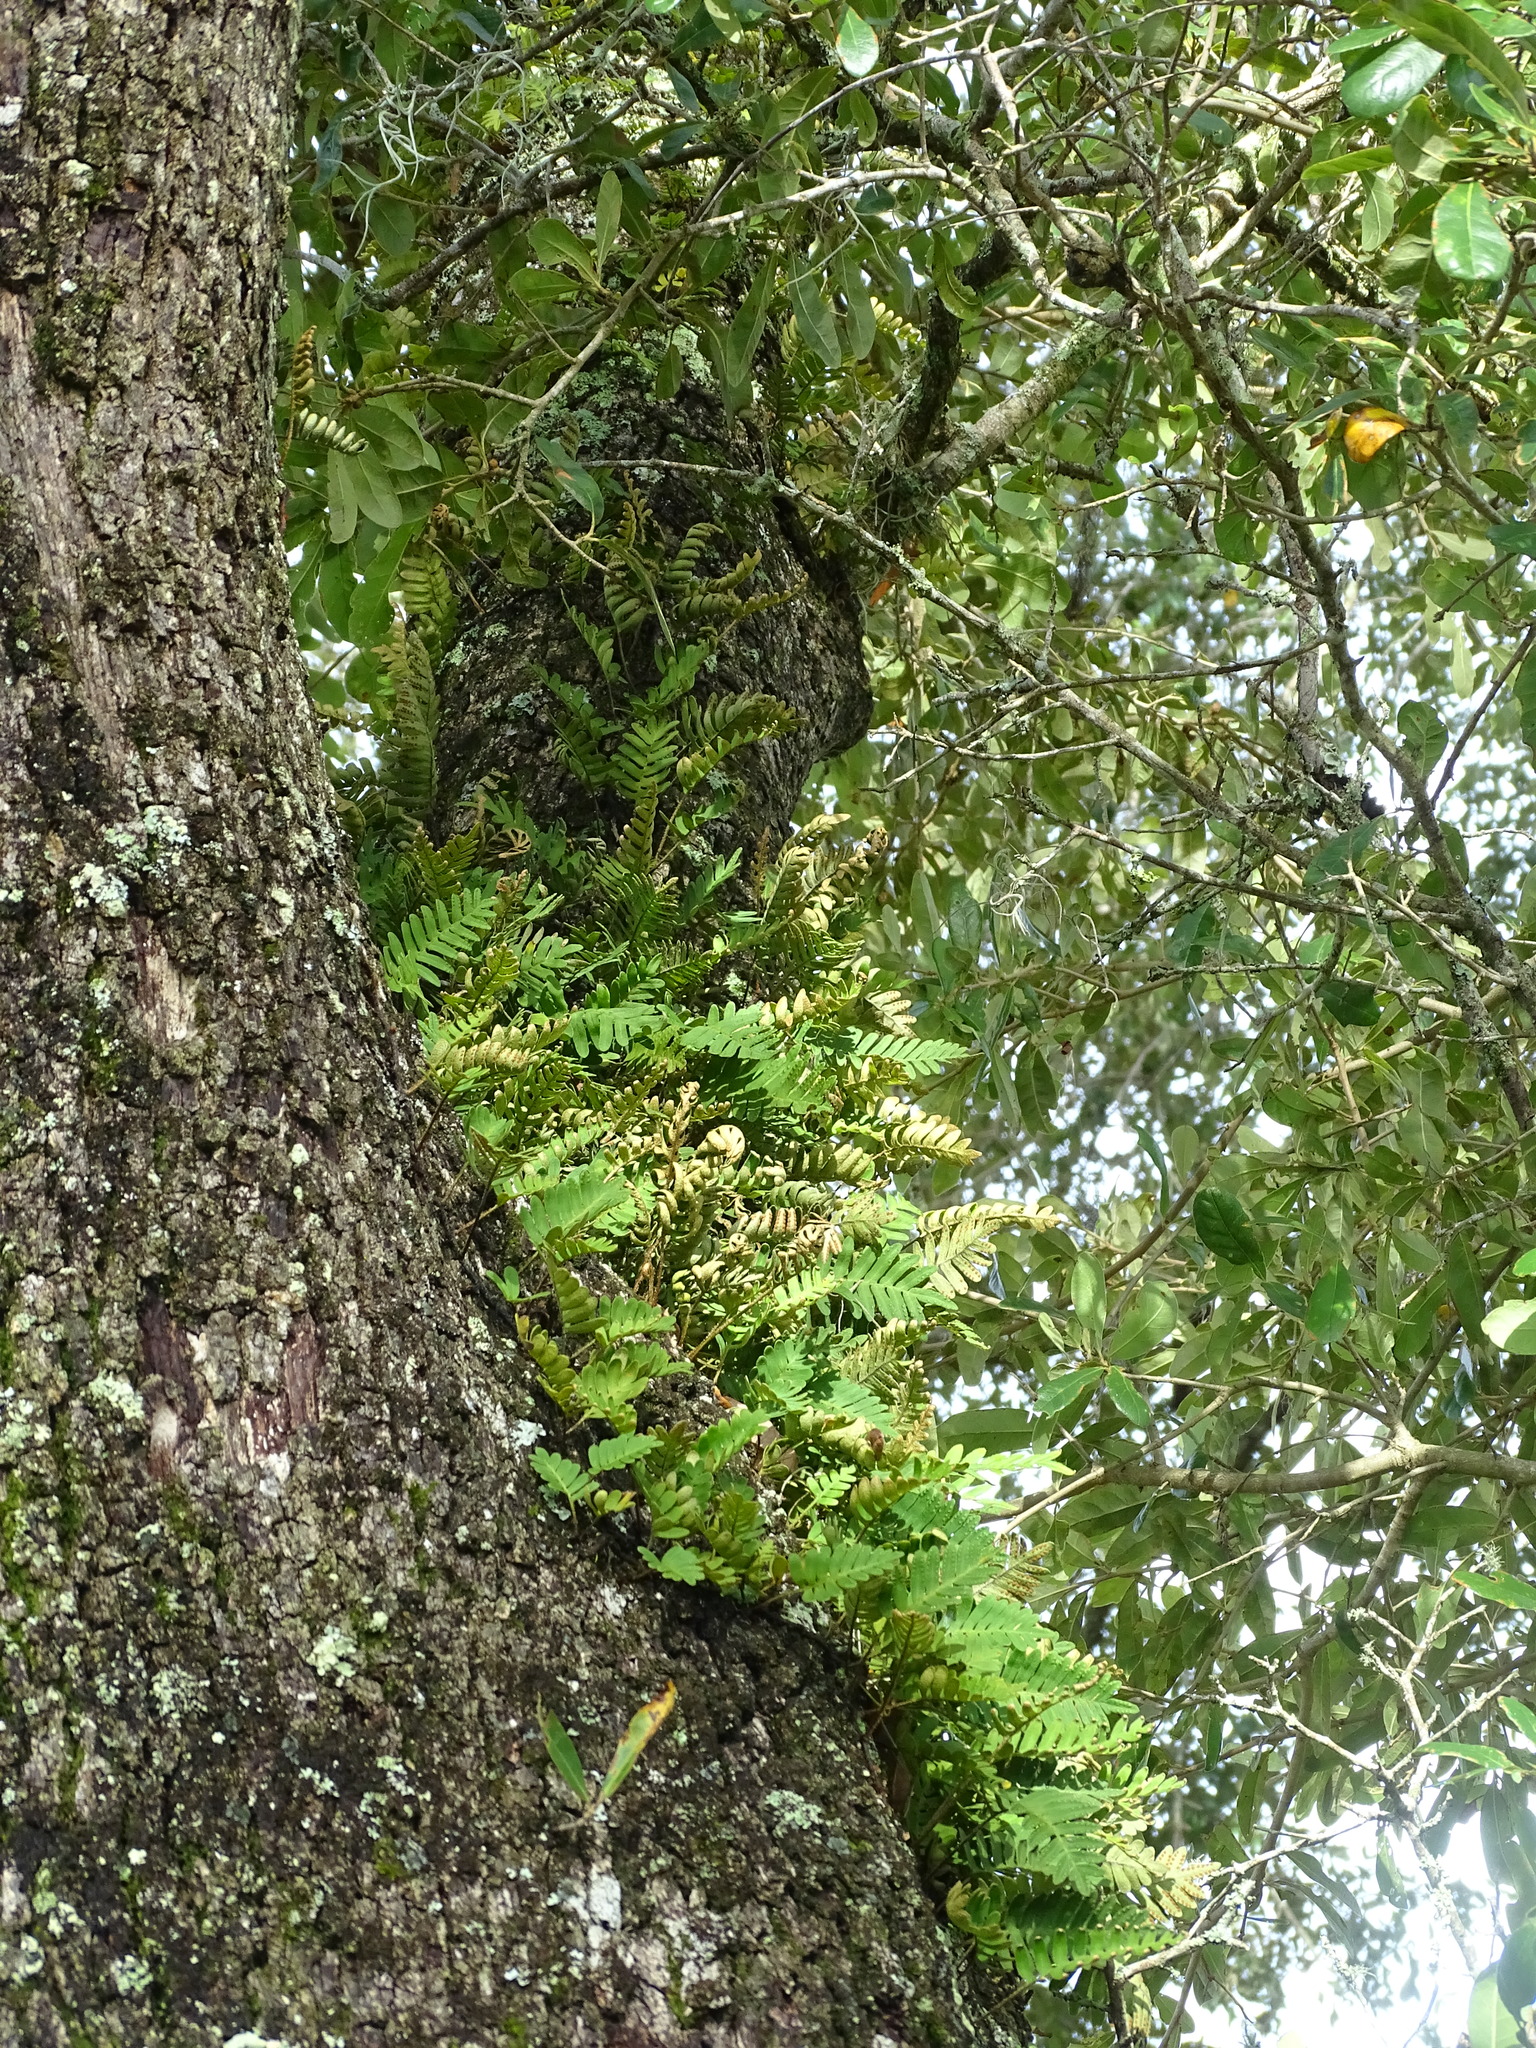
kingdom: Plantae
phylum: Tracheophyta
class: Polypodiopsida
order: Polypodiales
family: Polypodiaceae
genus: Pleopeltis
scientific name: Pleopeltis michauxiana
